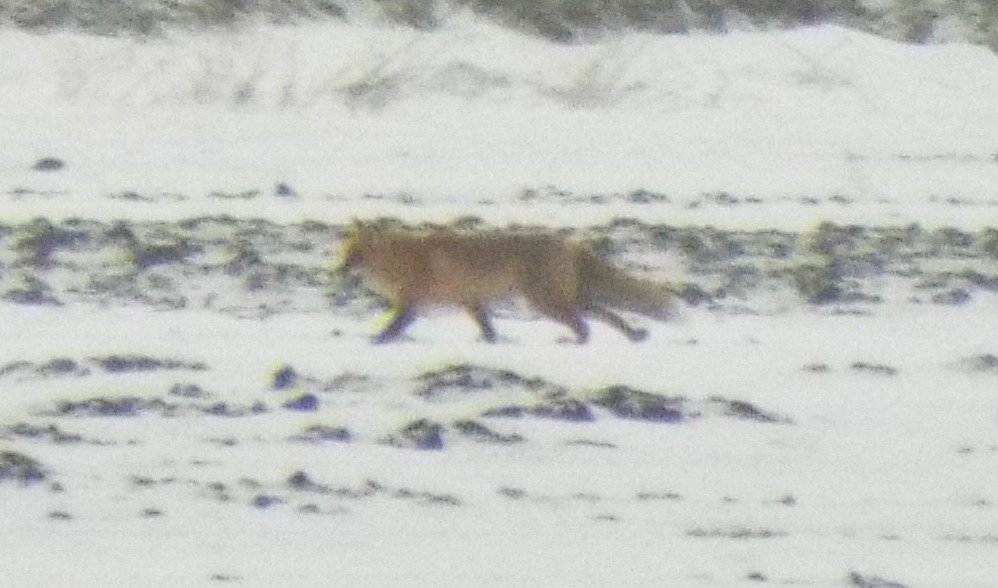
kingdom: Animalia
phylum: Chordata
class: Mammalia
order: Carnivora
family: Canidae
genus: Vulpes
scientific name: Vulpes vulpes
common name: Red fox
